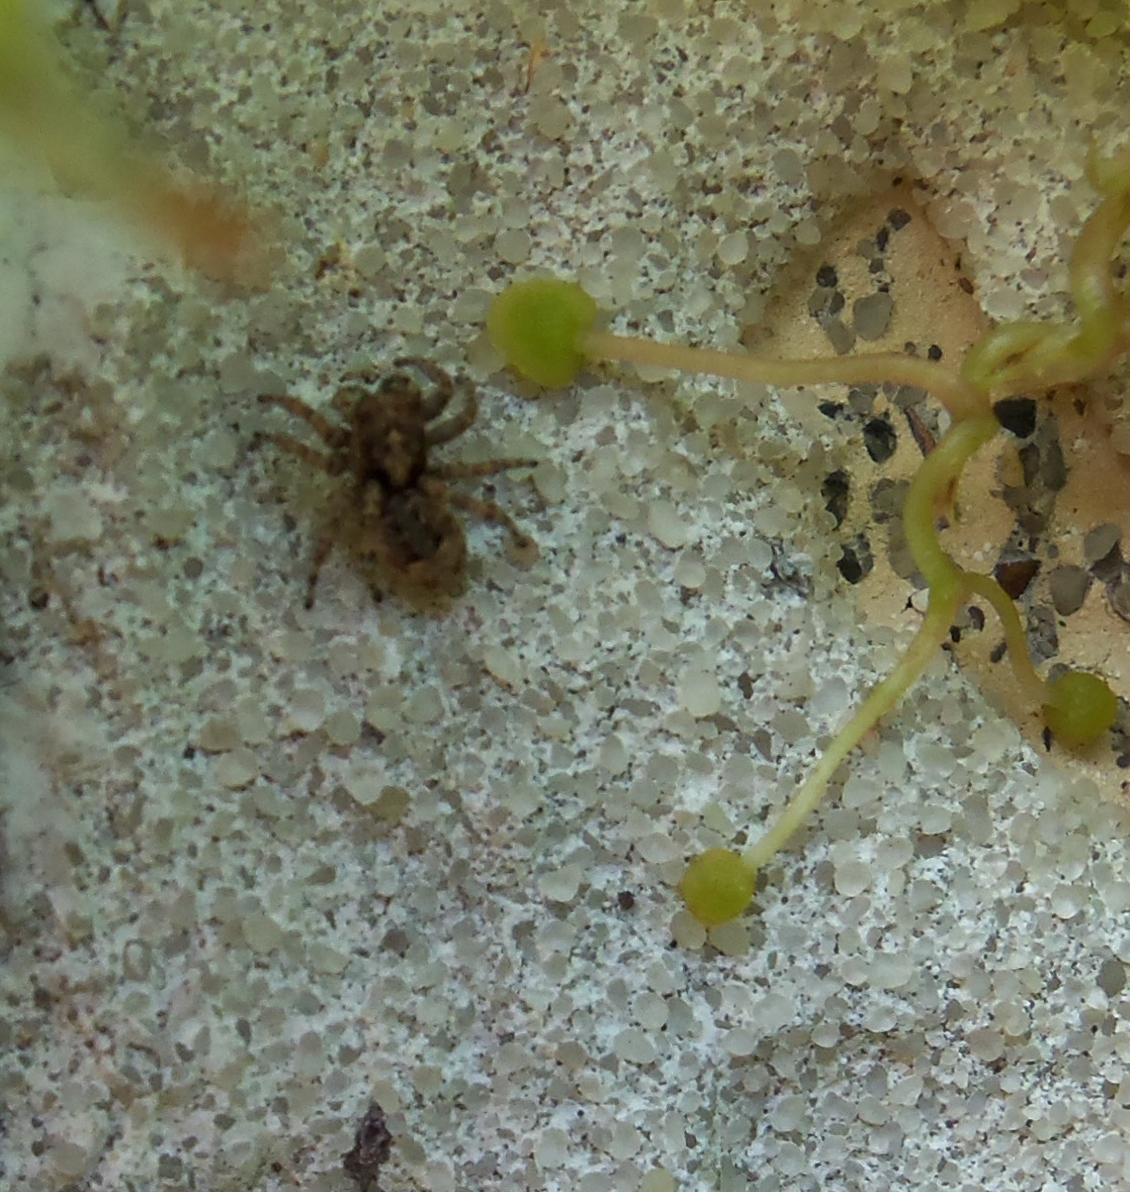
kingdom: Animalia
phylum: Arthropoda
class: Arachnida
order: Araneae
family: Salticidae
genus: Attulus
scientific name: Attulus fasciger
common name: Asiatic wall jumping spider
